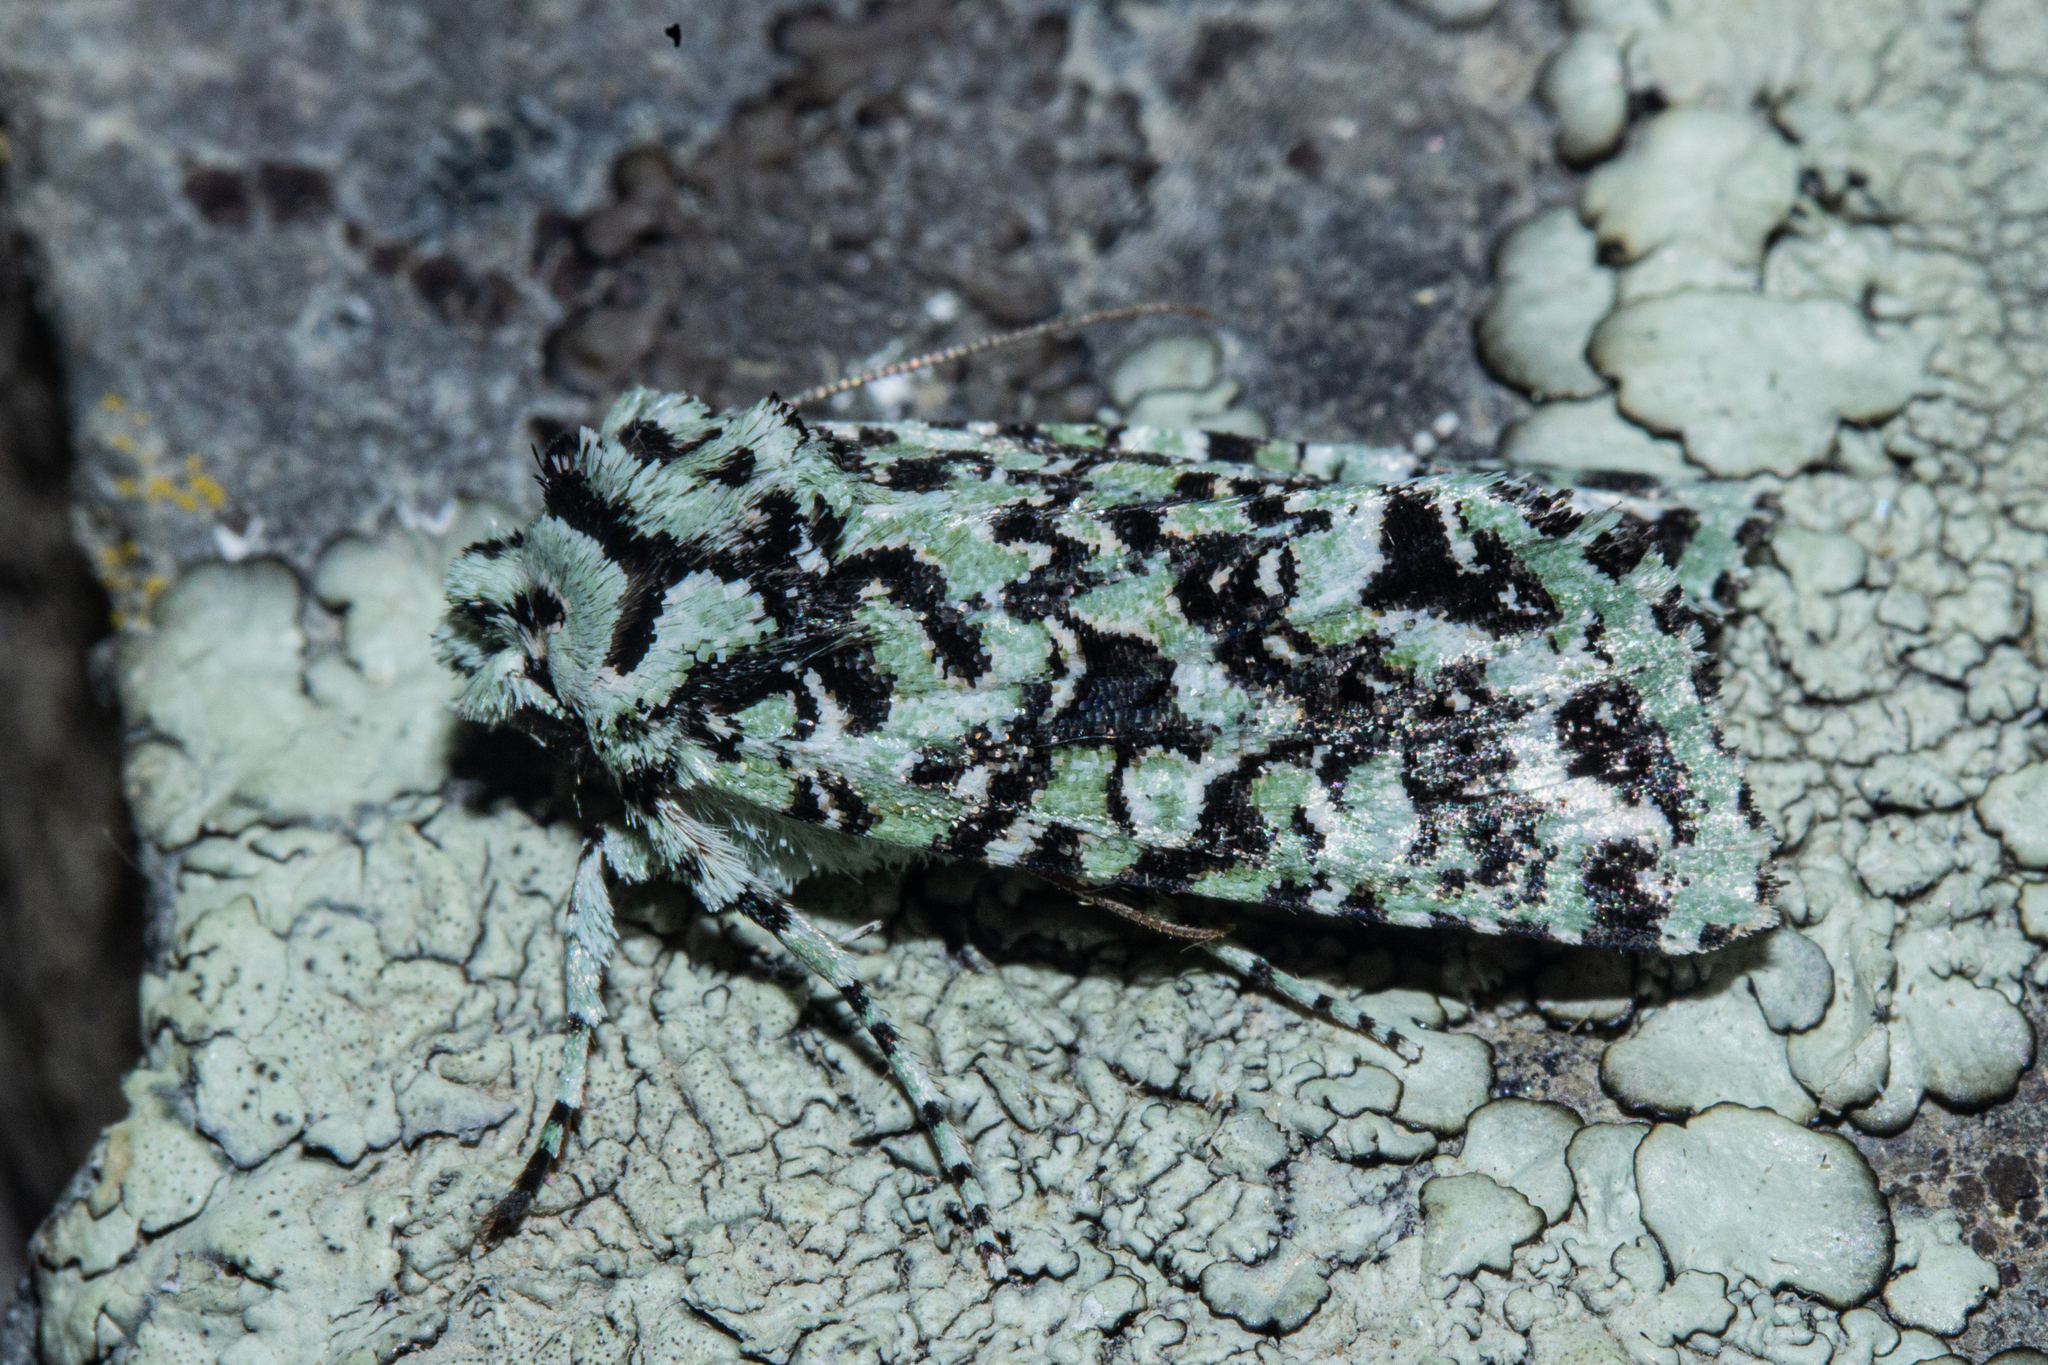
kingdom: Animalia
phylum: Arthropoda
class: Insecta
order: Lepidoptera
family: Noctuidae
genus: Meterana
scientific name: Meterana
